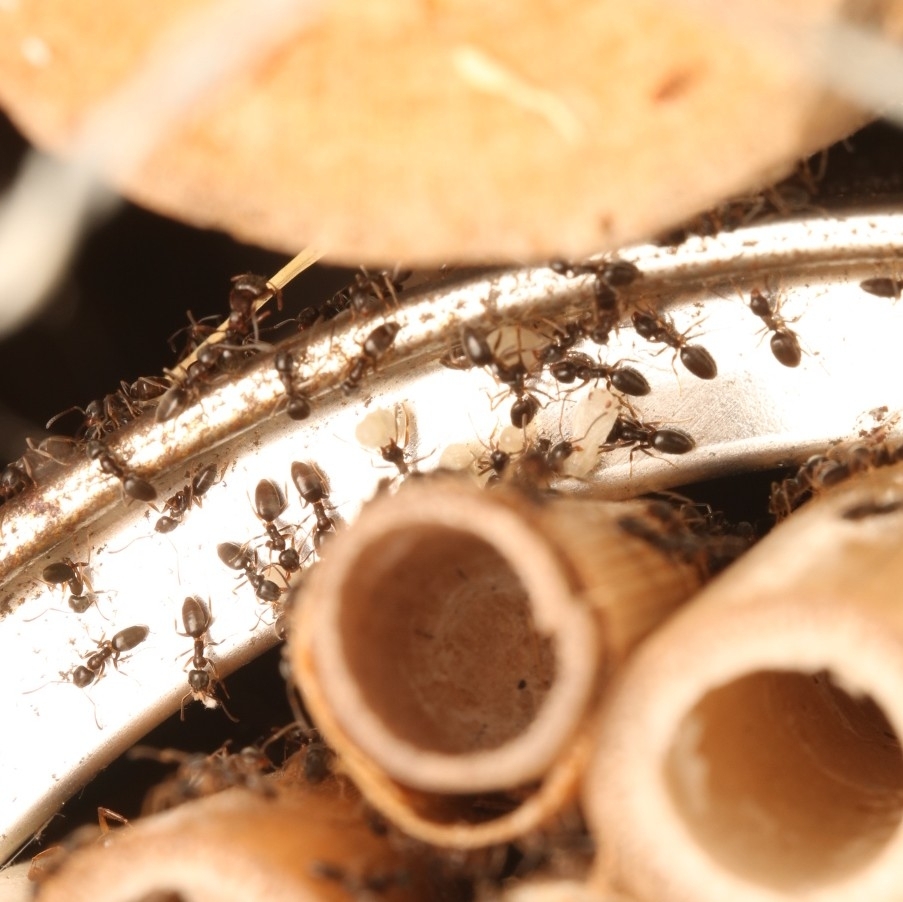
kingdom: Animalia
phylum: Arthropoda
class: Insecta
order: Hymenoptera
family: Formicidae
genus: Tapinoma
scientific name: Tapinoma sessile
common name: Odorous house ant
